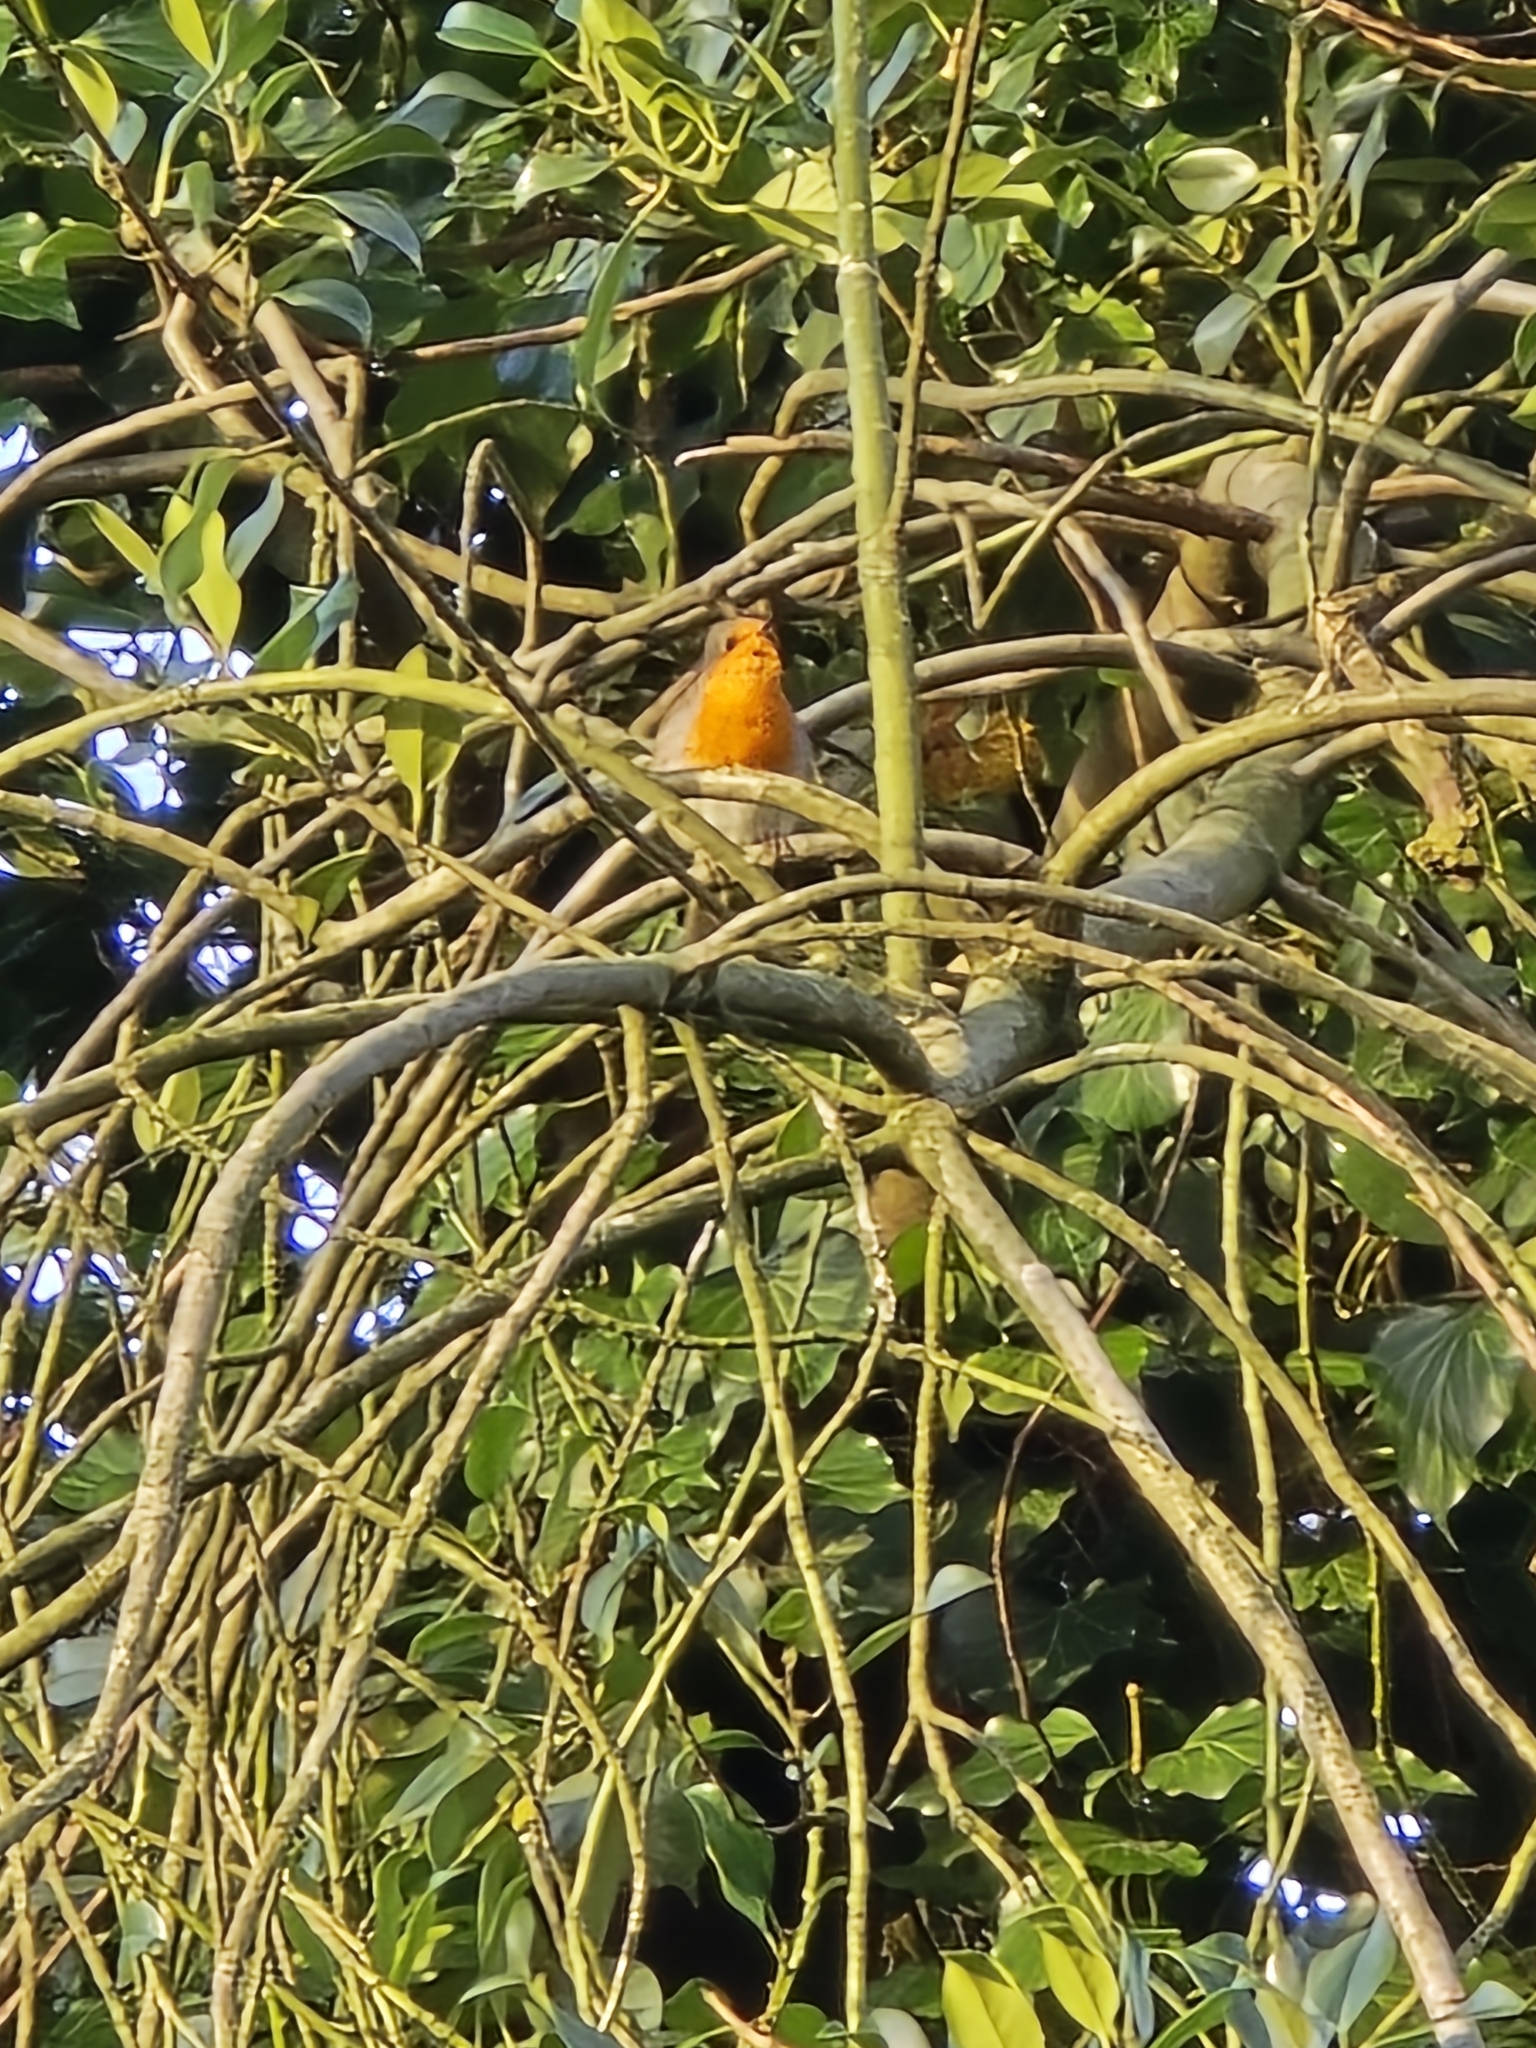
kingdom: Animalia
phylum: Chordata
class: Aves
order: Passeriformes
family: Muscicapidae
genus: Erithacus
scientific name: Erithacus rubecula
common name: European robin
